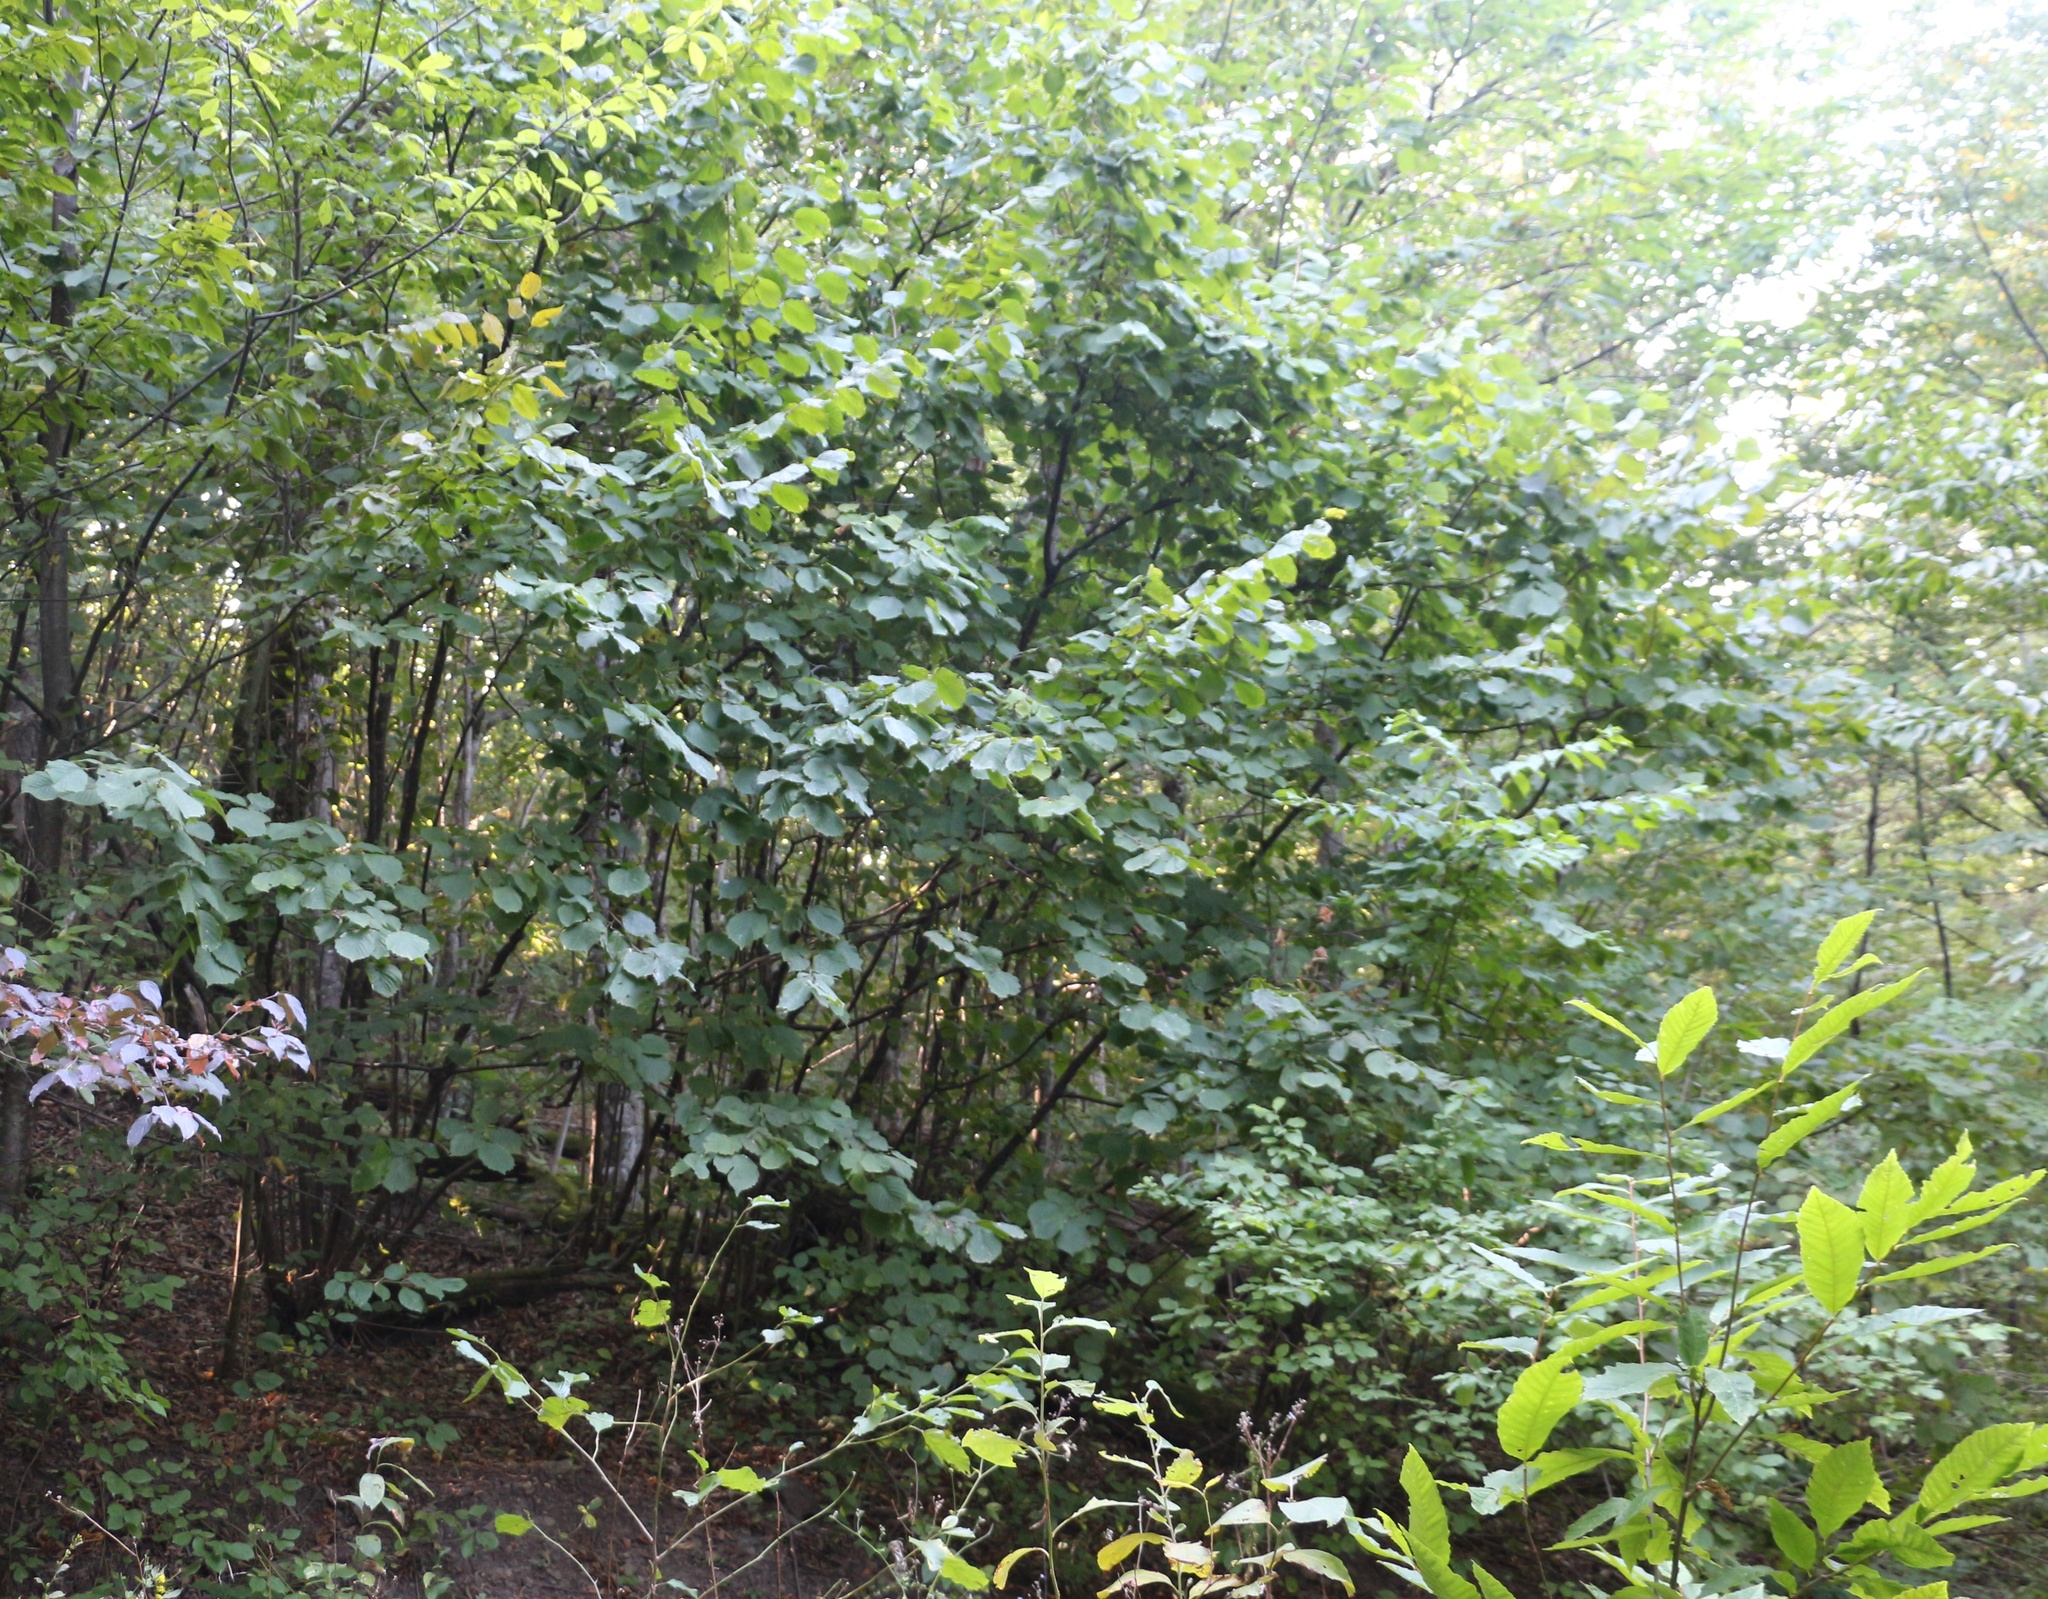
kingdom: Plantae
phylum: Tracheophyta
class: Magnoliopsida
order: Fagales
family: Betulaceae
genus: Corylus
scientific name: Corylus avellana
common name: European hazel
